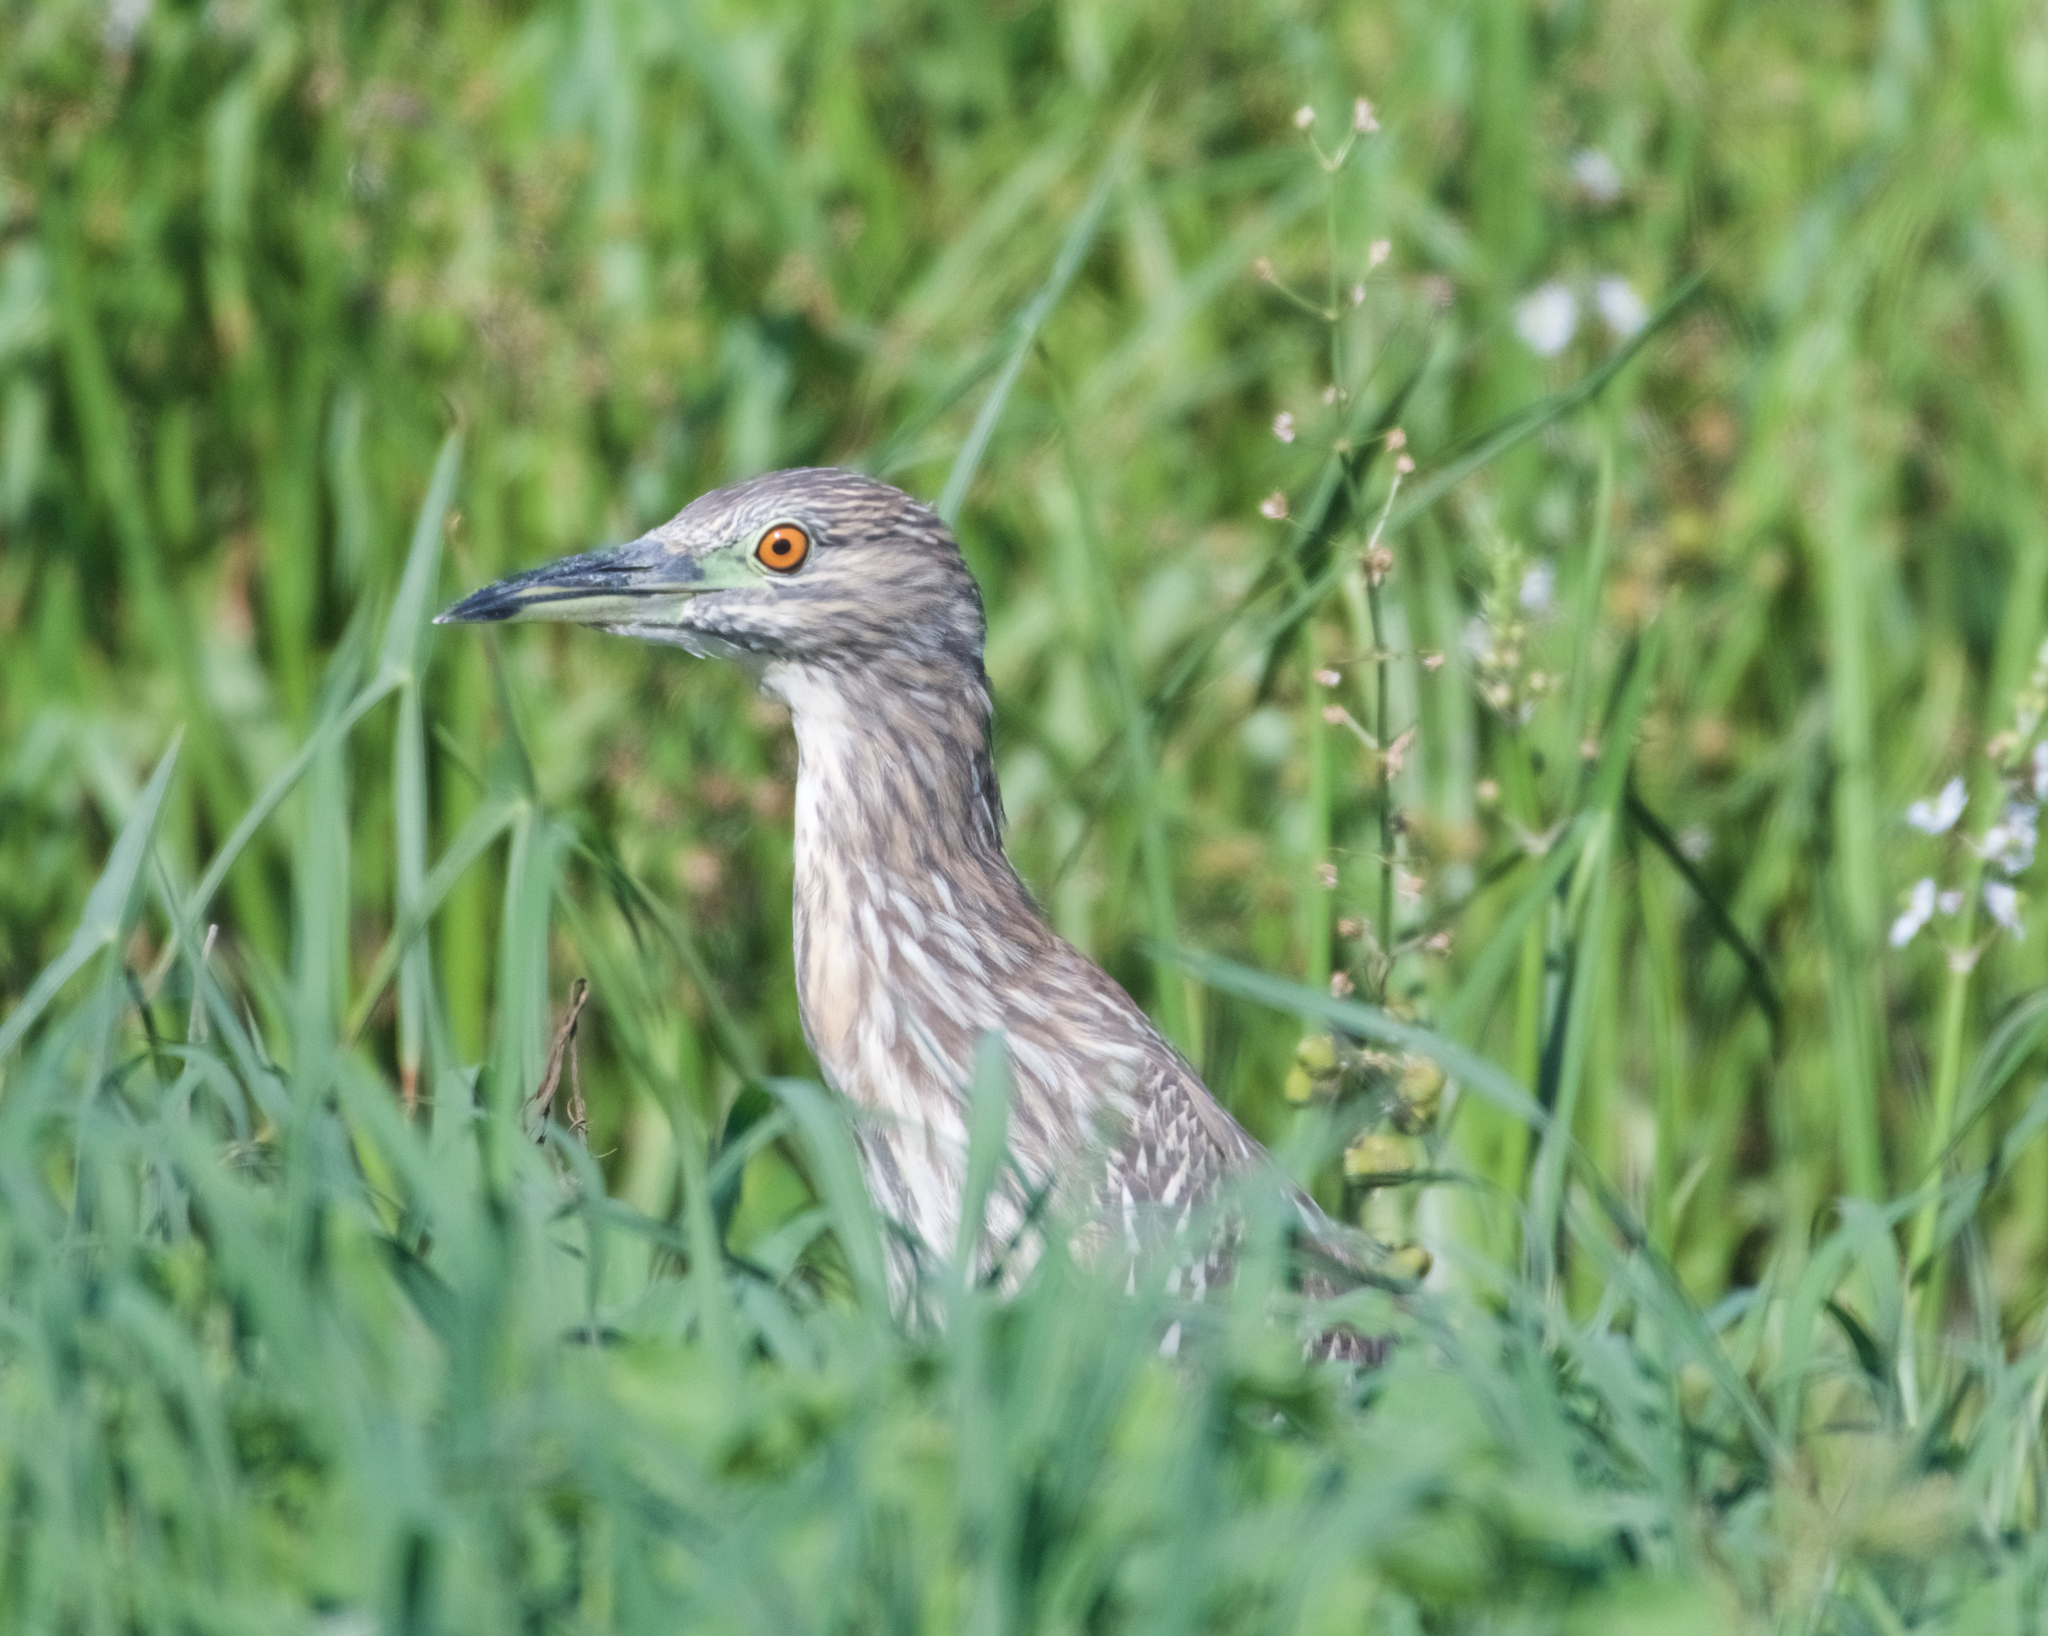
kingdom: Animalia
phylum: Chordata
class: Aves
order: Pelecaniformes
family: Ardeidae
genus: Nycticorax
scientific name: Nycticorax nycticorax
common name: Black-crowned night heron
